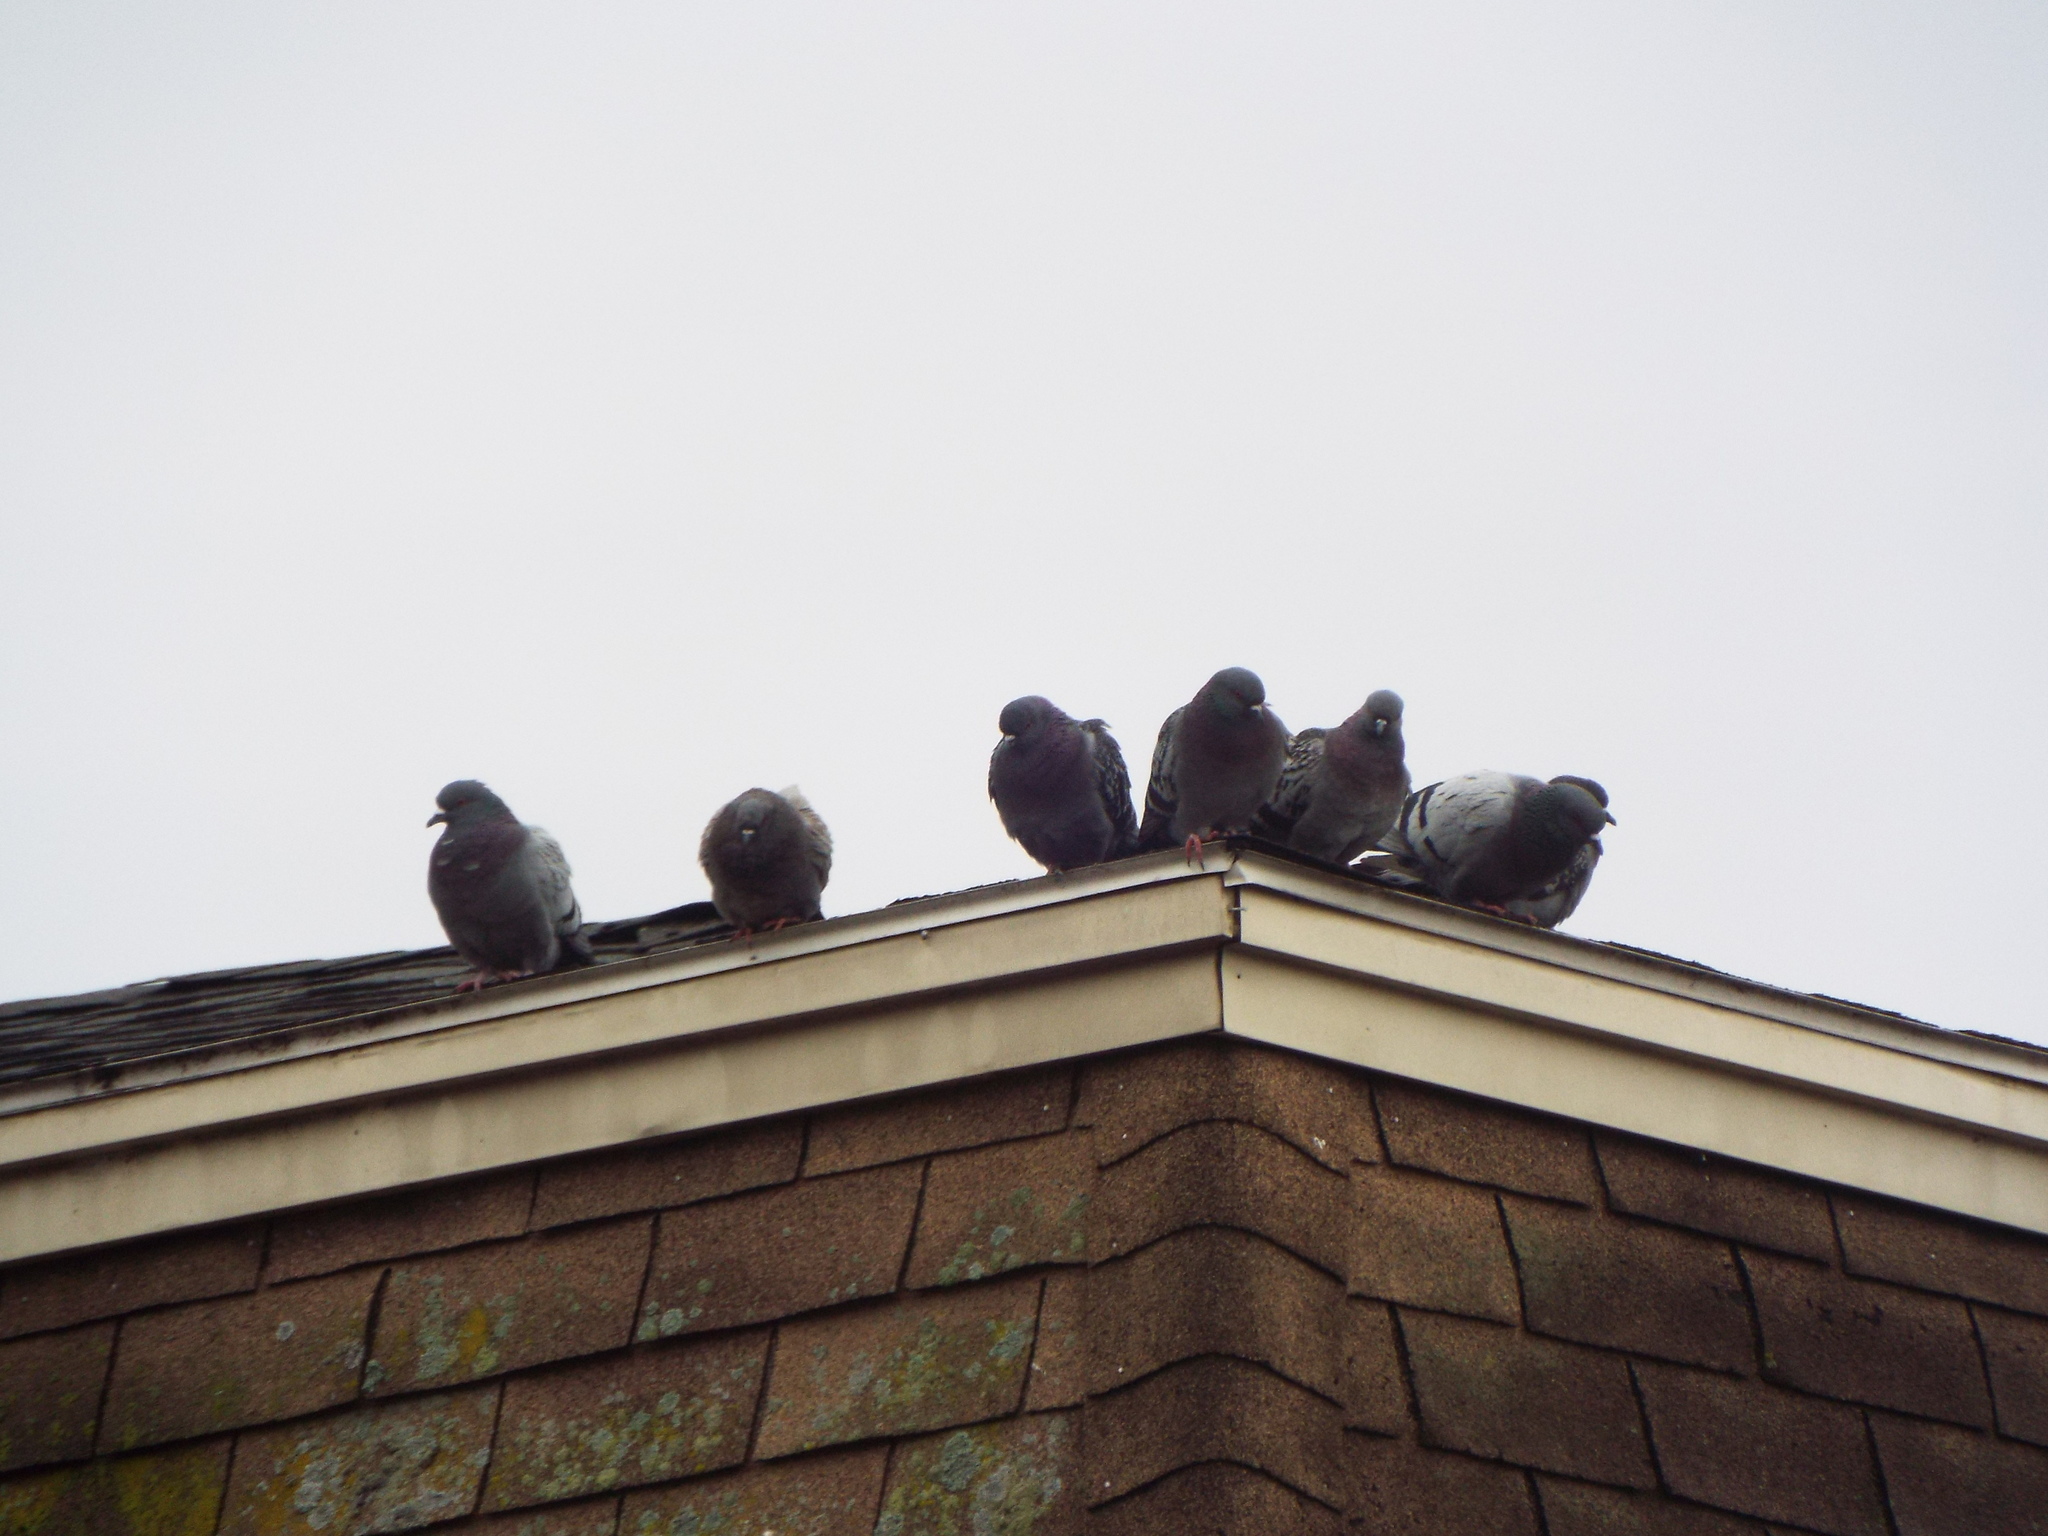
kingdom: Animalia
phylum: Chordata
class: Aves
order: Columbiformes
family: Columbidae
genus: Columba
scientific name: Columba livia
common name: Rock pigeon
